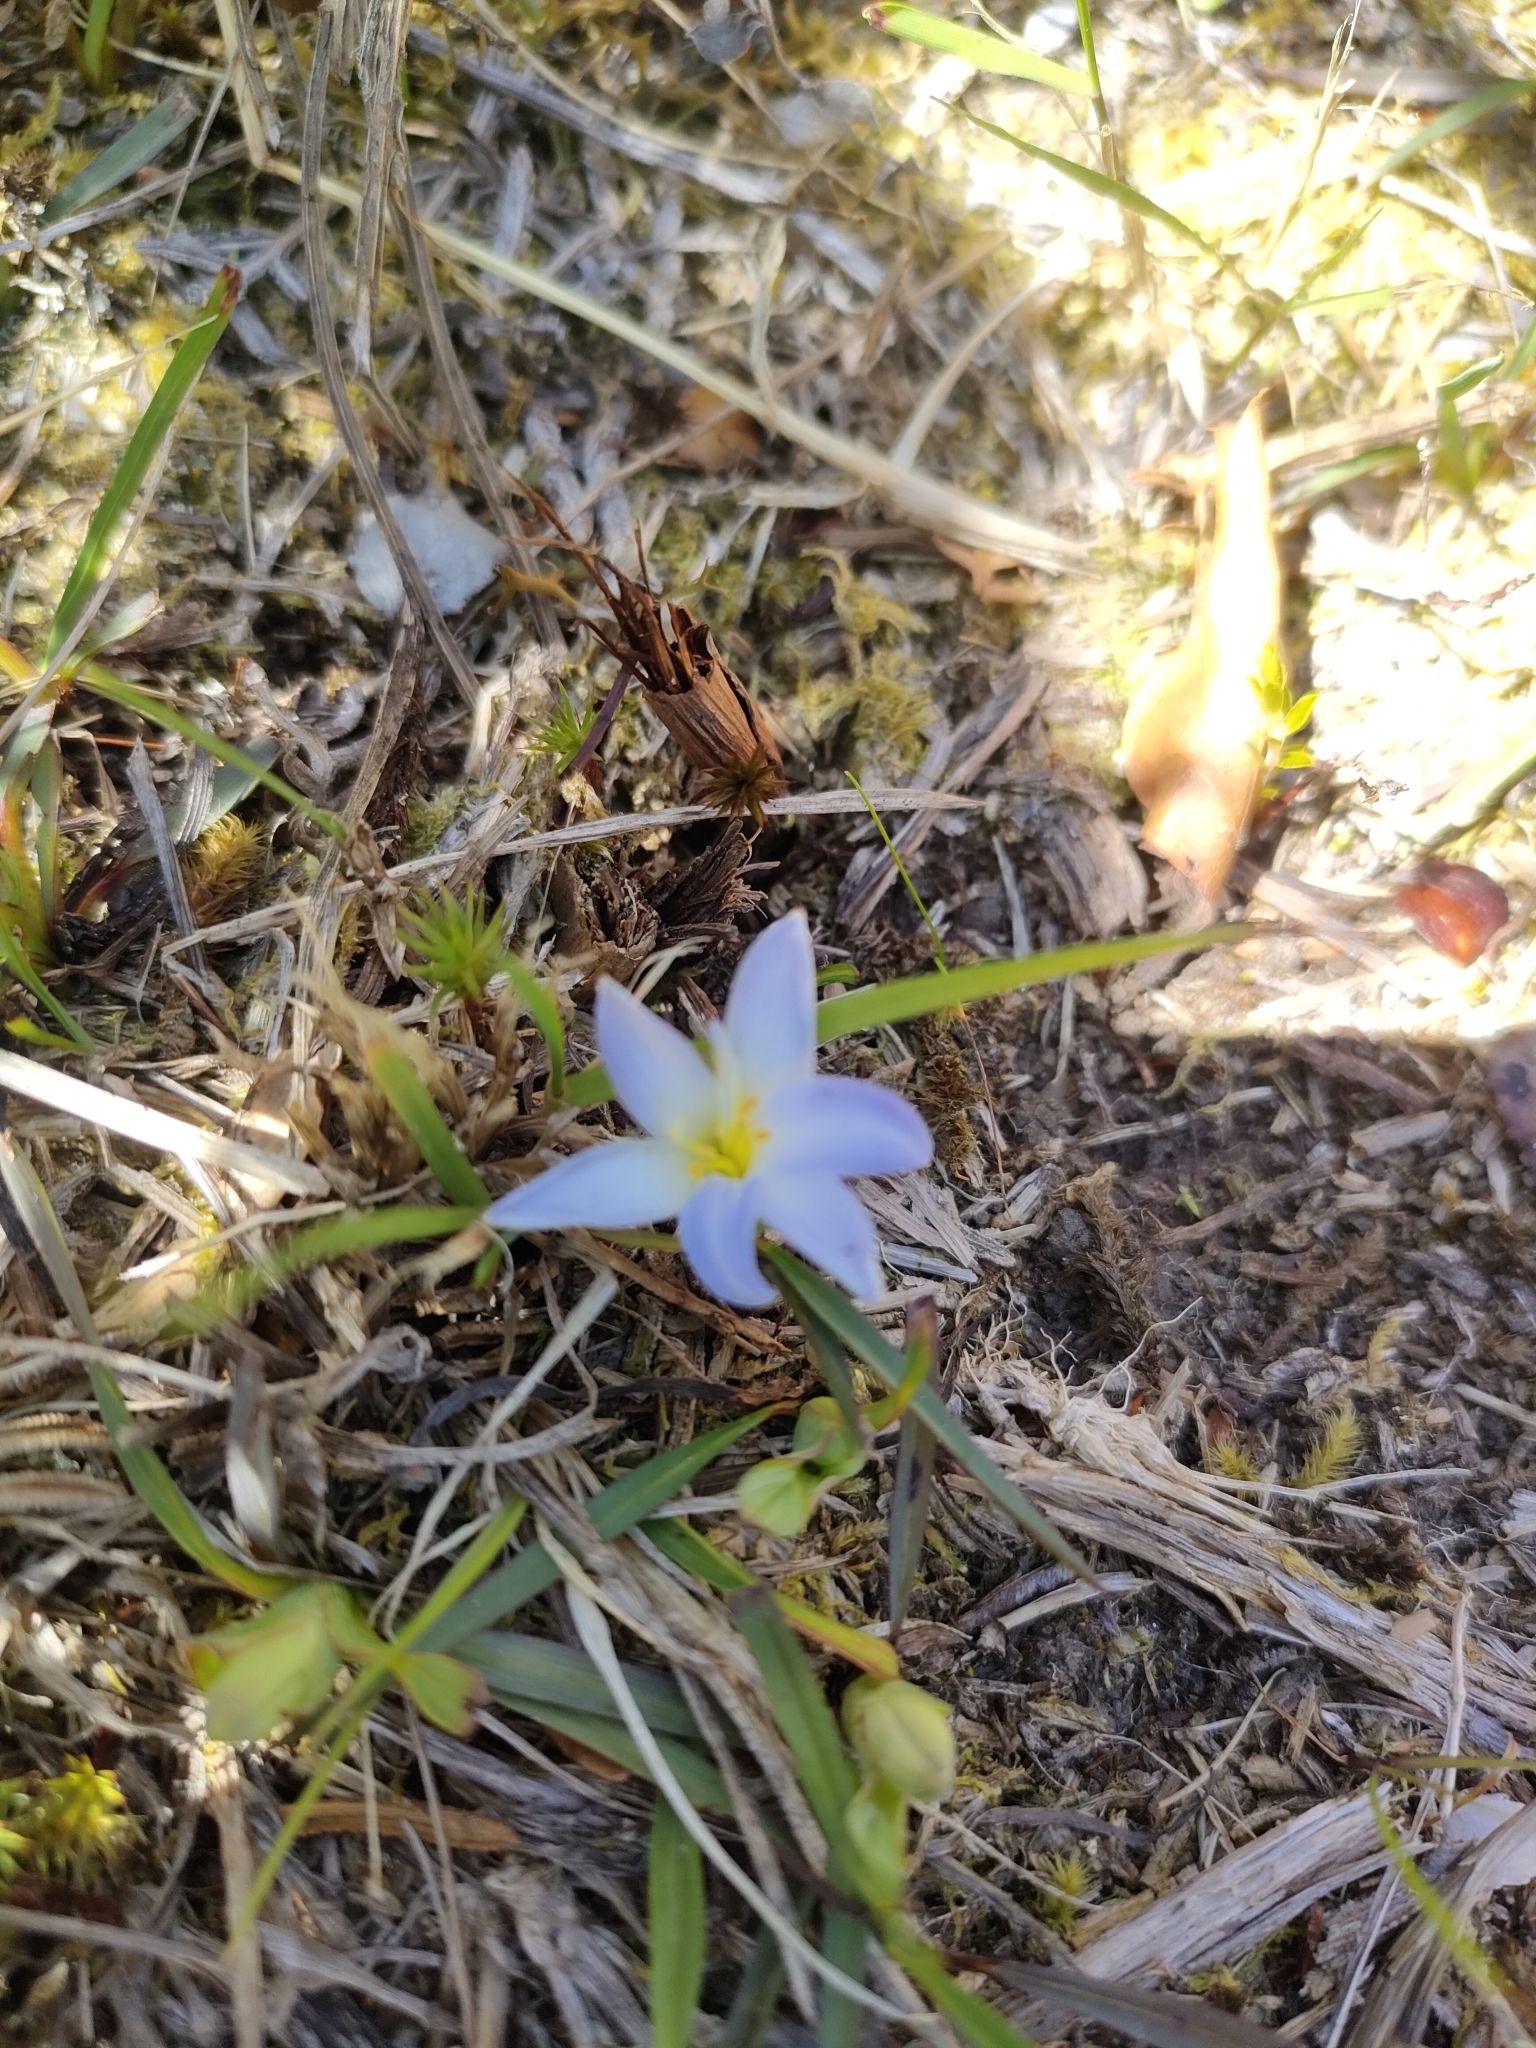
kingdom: Plantae
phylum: Tracheophyta
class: Liliopsida
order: Asparagales
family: Asphodelaceae
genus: Herpolirion
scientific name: Herpolirion novae-zelandiae
